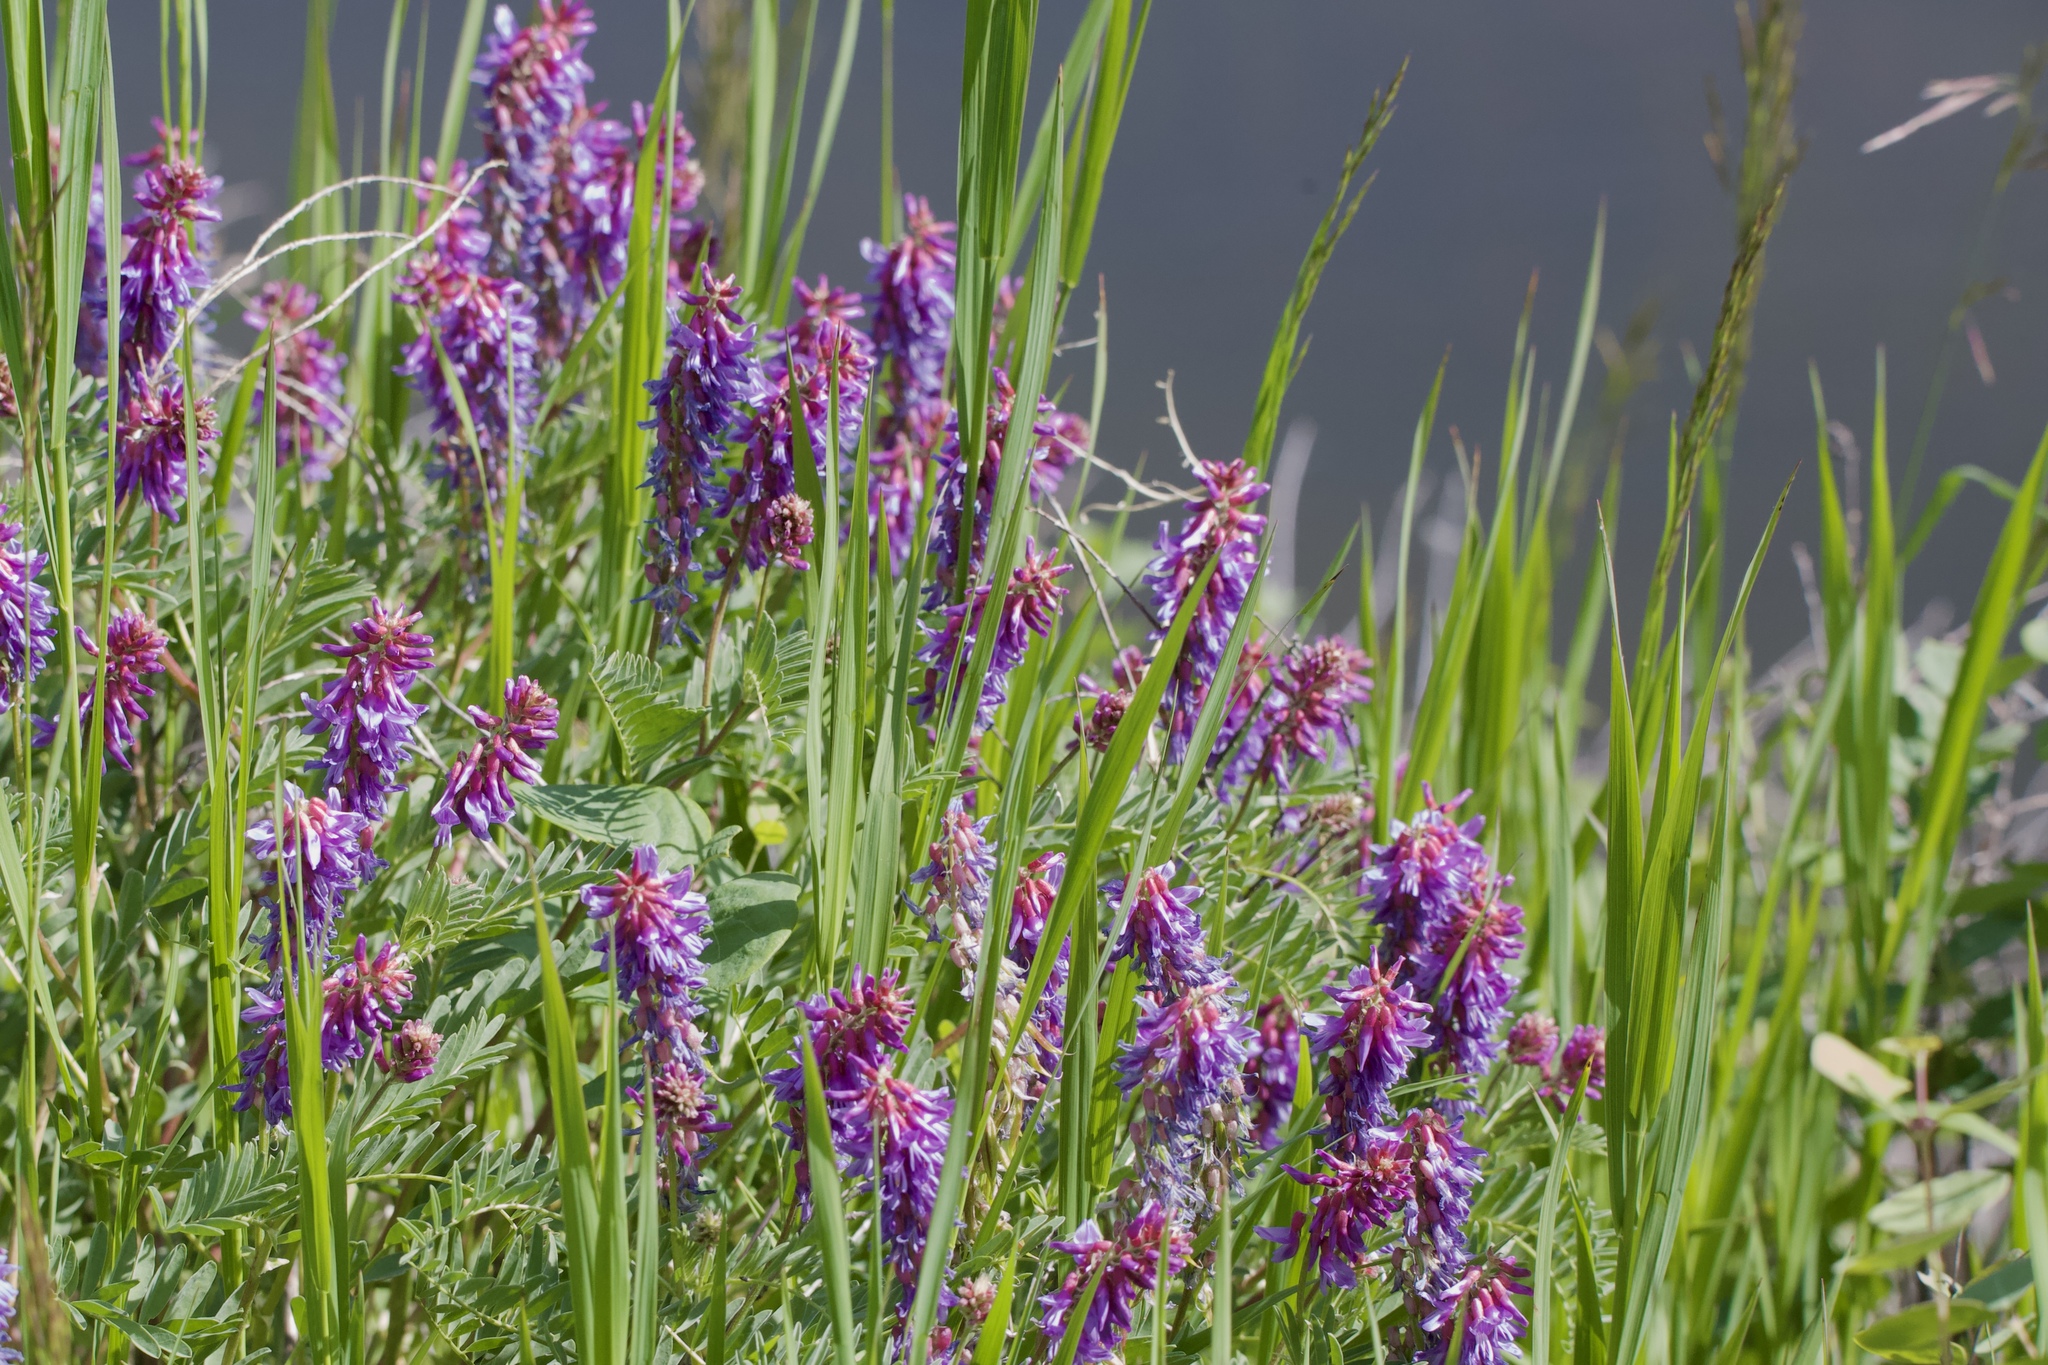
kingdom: Plantae
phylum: Tracheophyta
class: Magnoliopsida
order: Fabales
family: Fabaceae
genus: Vicia
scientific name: Vicia cracca
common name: Bird vetch
